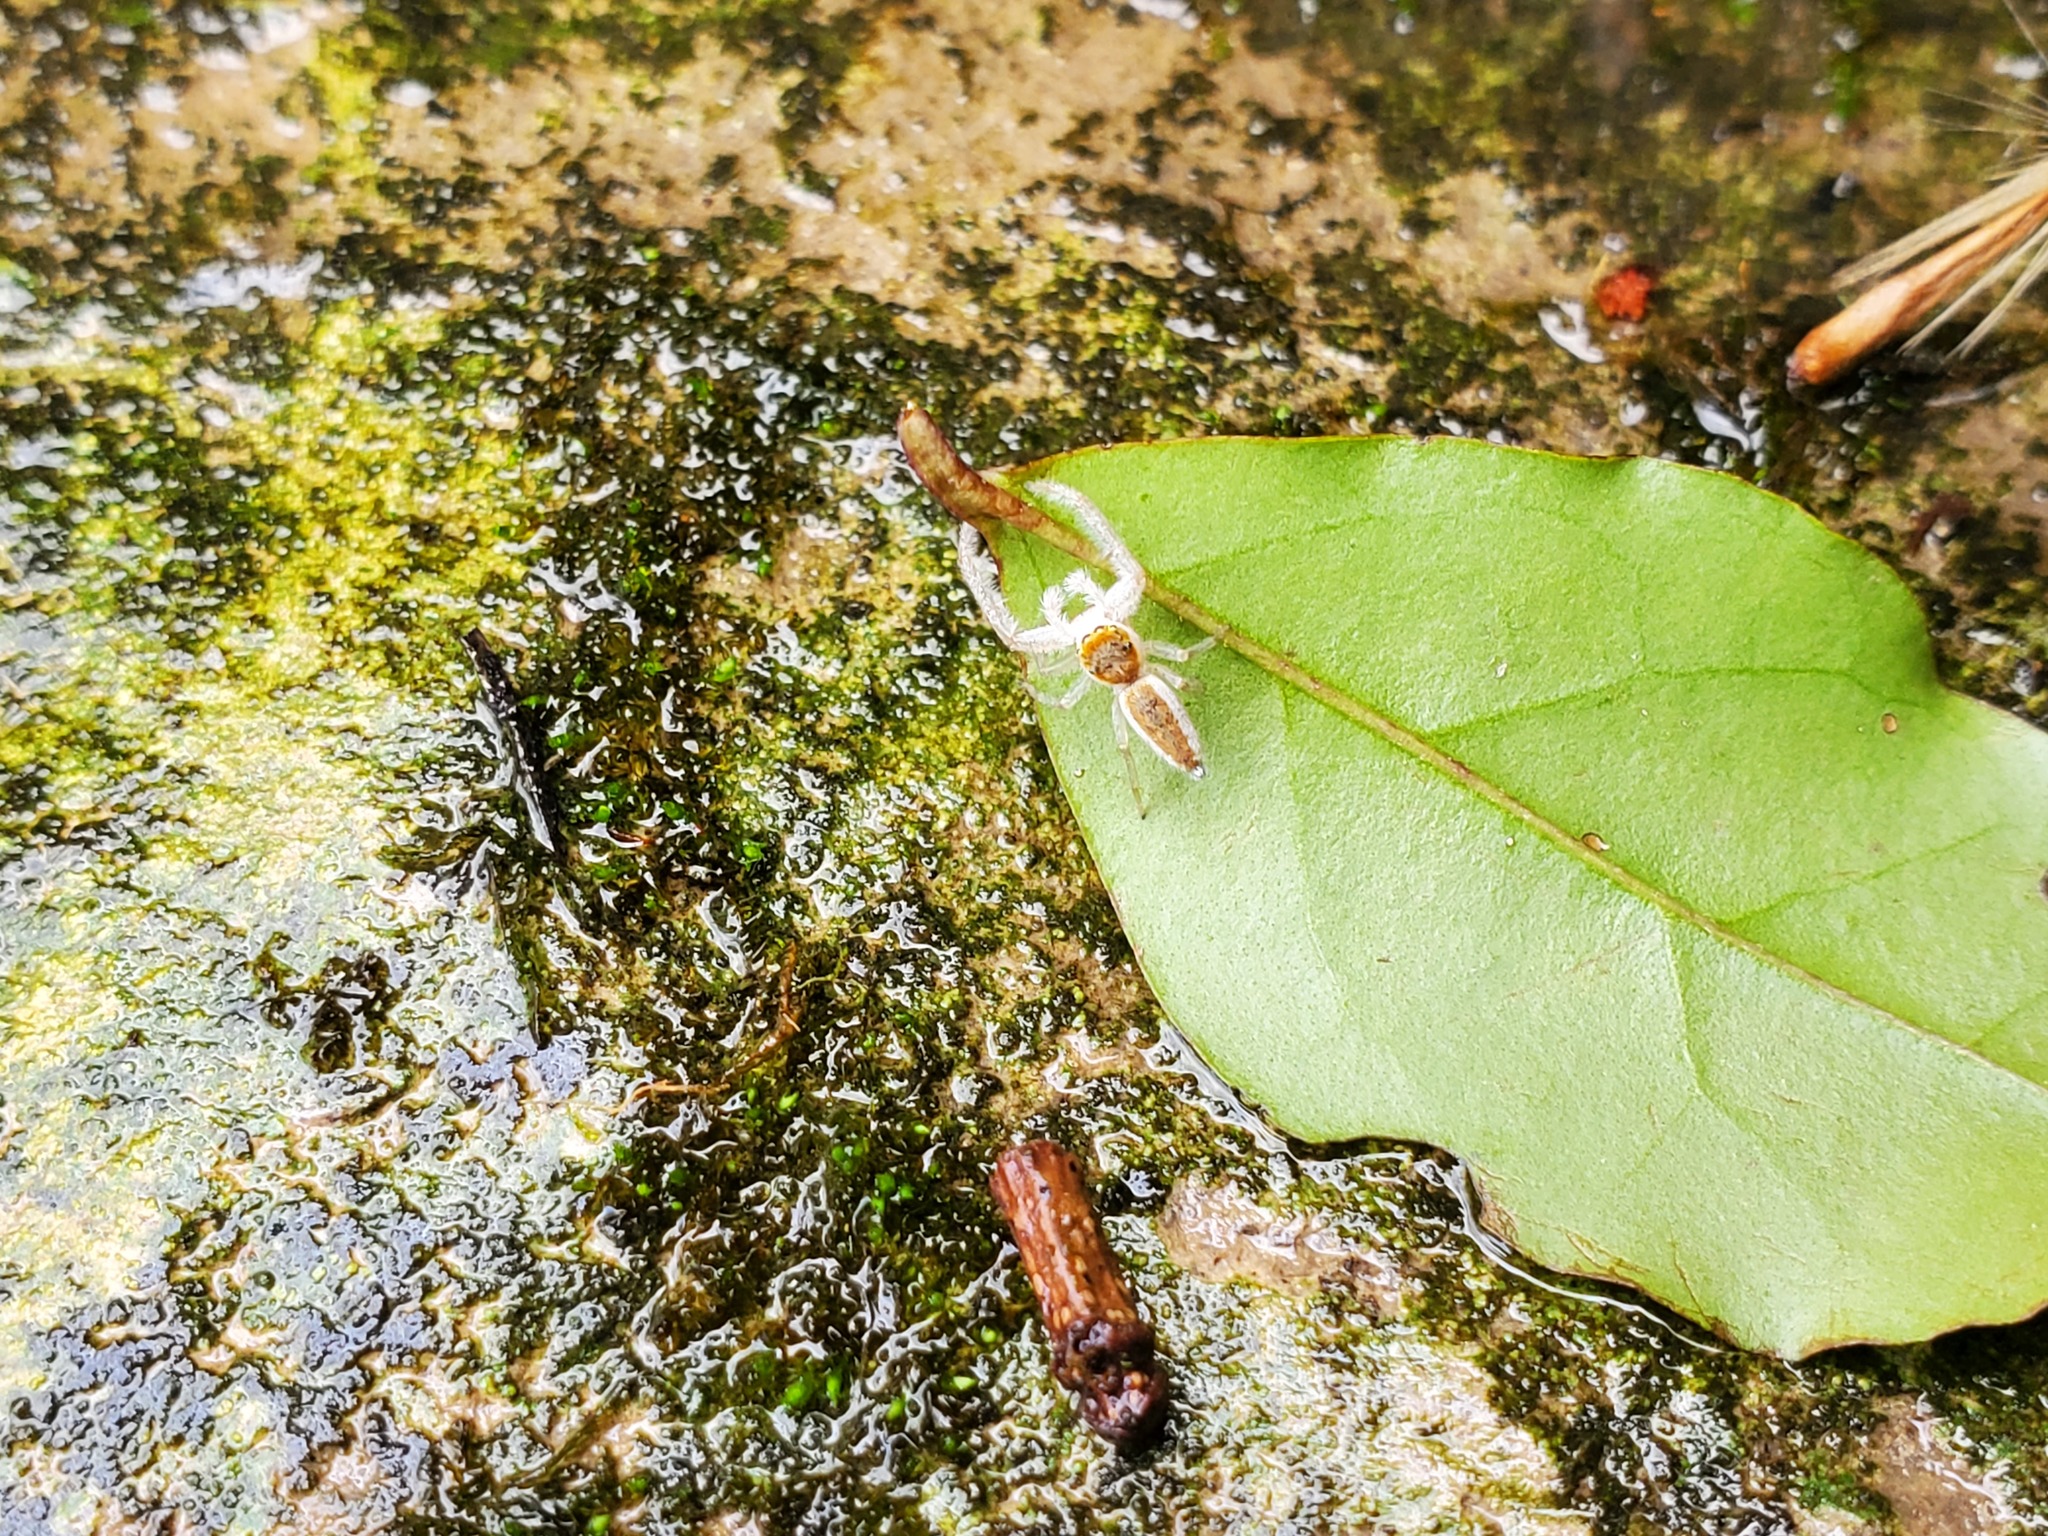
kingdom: Animalia
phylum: Arthropoda
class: Arachnida
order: Araneae
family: Salticidae
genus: Hentzia
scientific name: Hentzia mitrata
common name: White-jawed jumping spider
